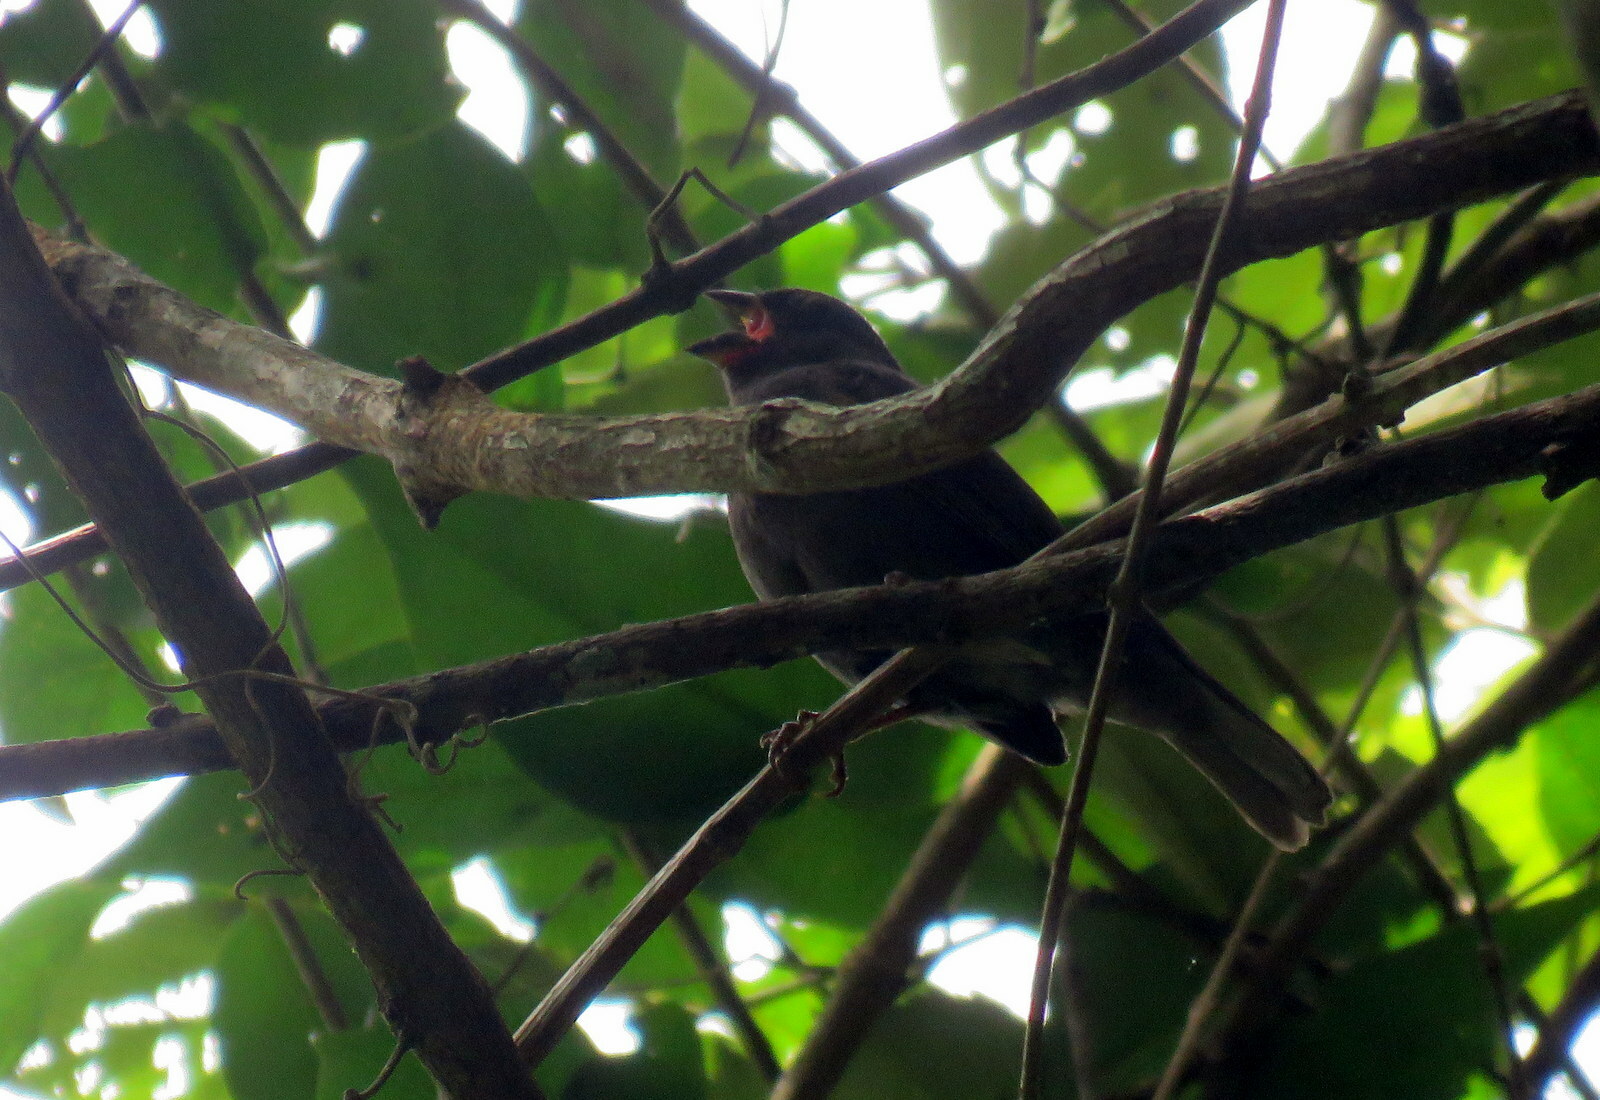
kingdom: Animalia
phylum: Chordata
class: Aves
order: Passeriformes
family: Thraupidae
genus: Asemospiza
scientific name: Asemospiza fuliginosa
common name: Sooty grassquit
